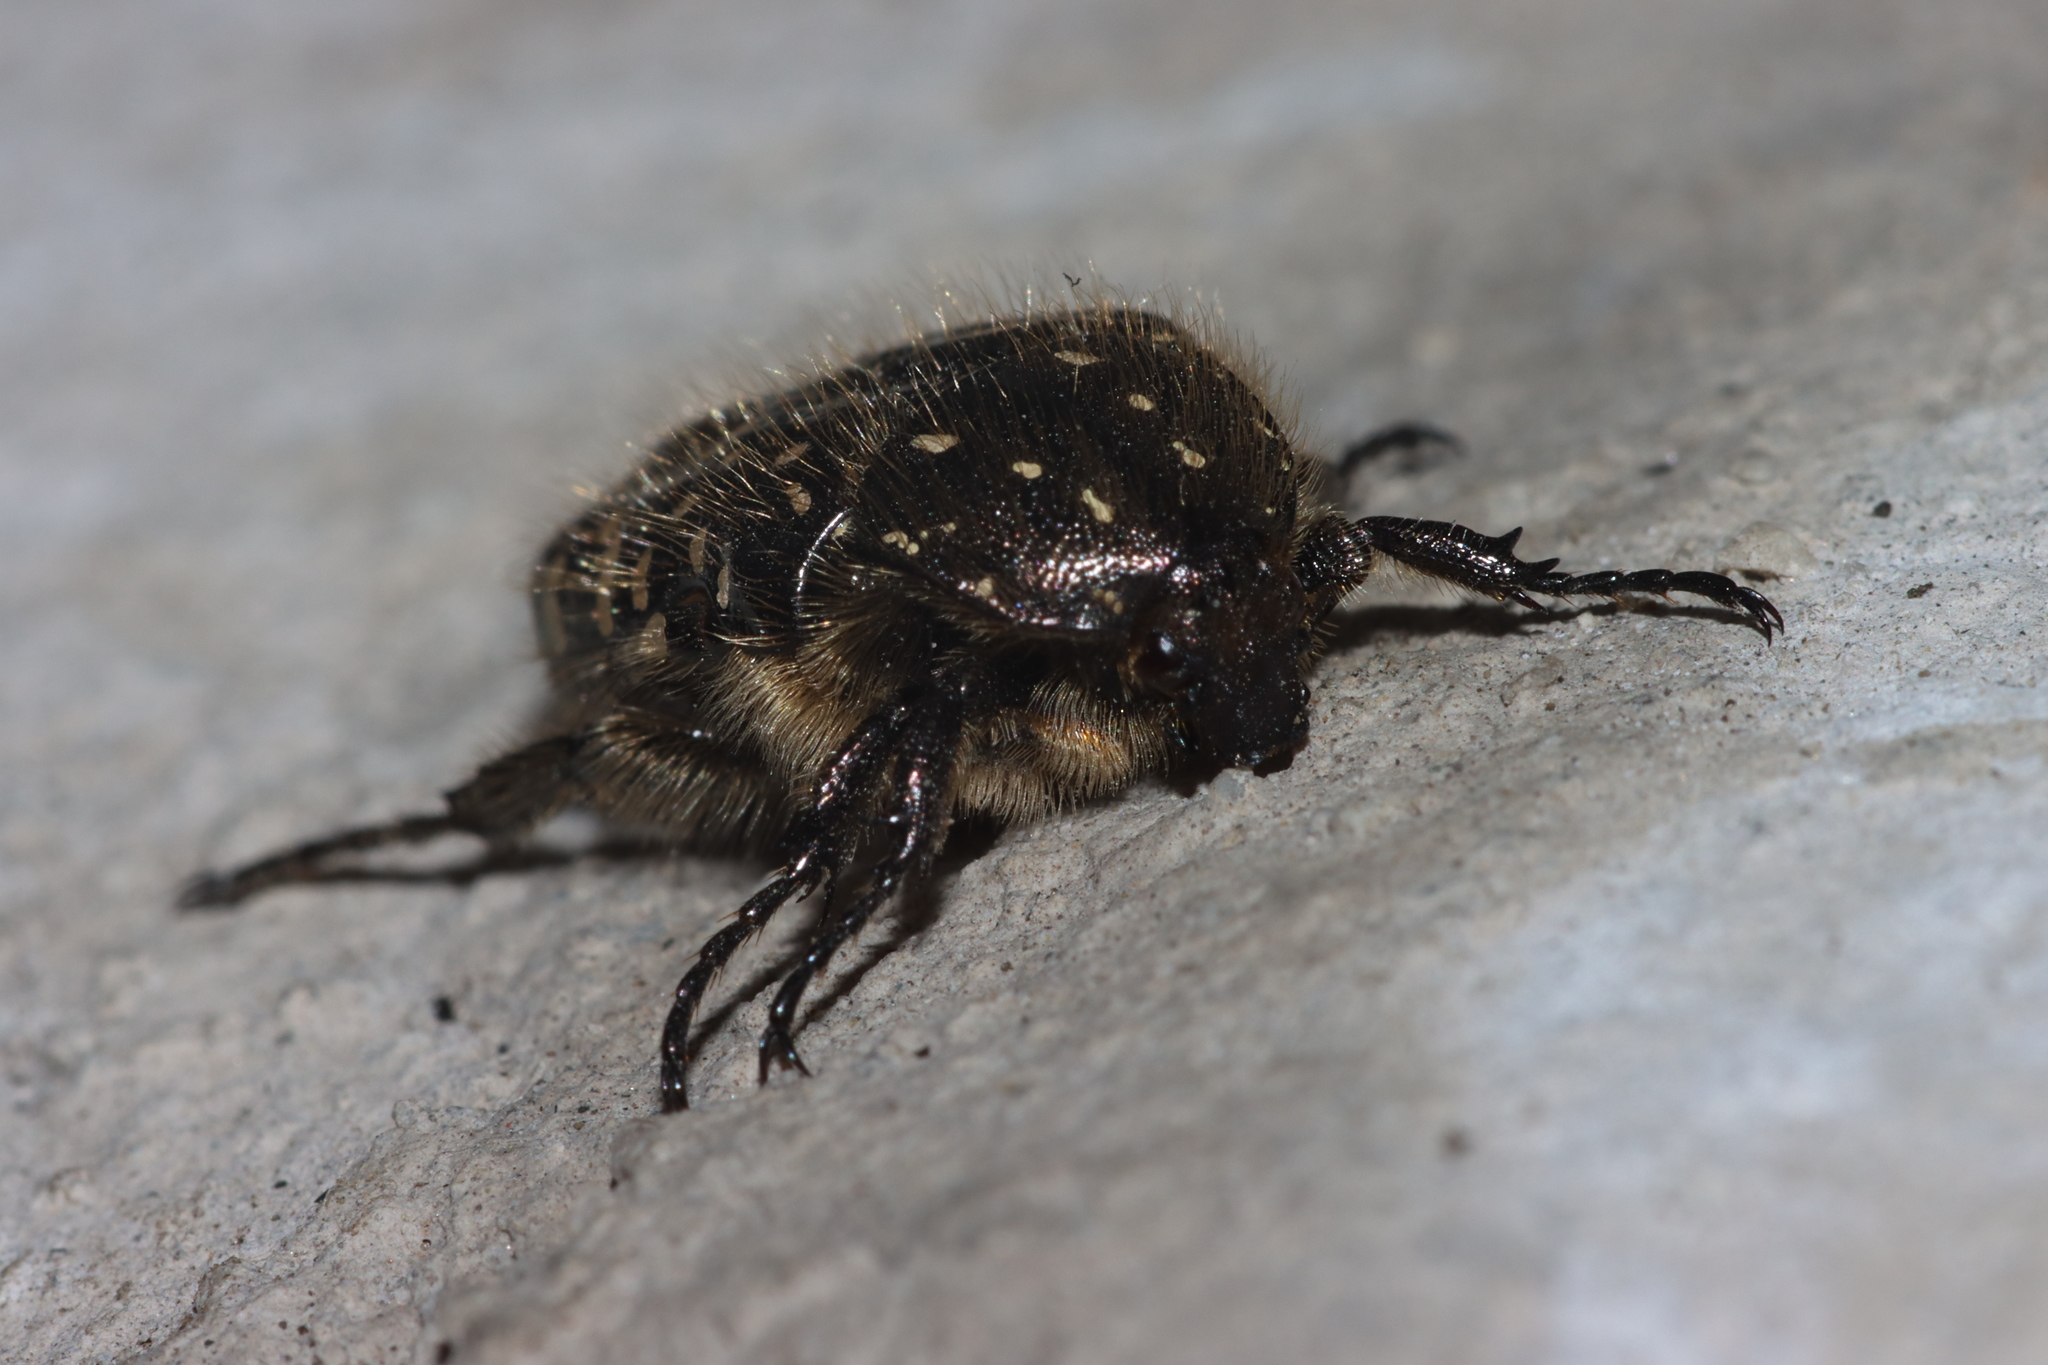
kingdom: Animalia
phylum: Arthropoda
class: Insecta
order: Coleoptera
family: Scarabaeidae
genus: Oxythyrea
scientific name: Oxythyrea funesta
